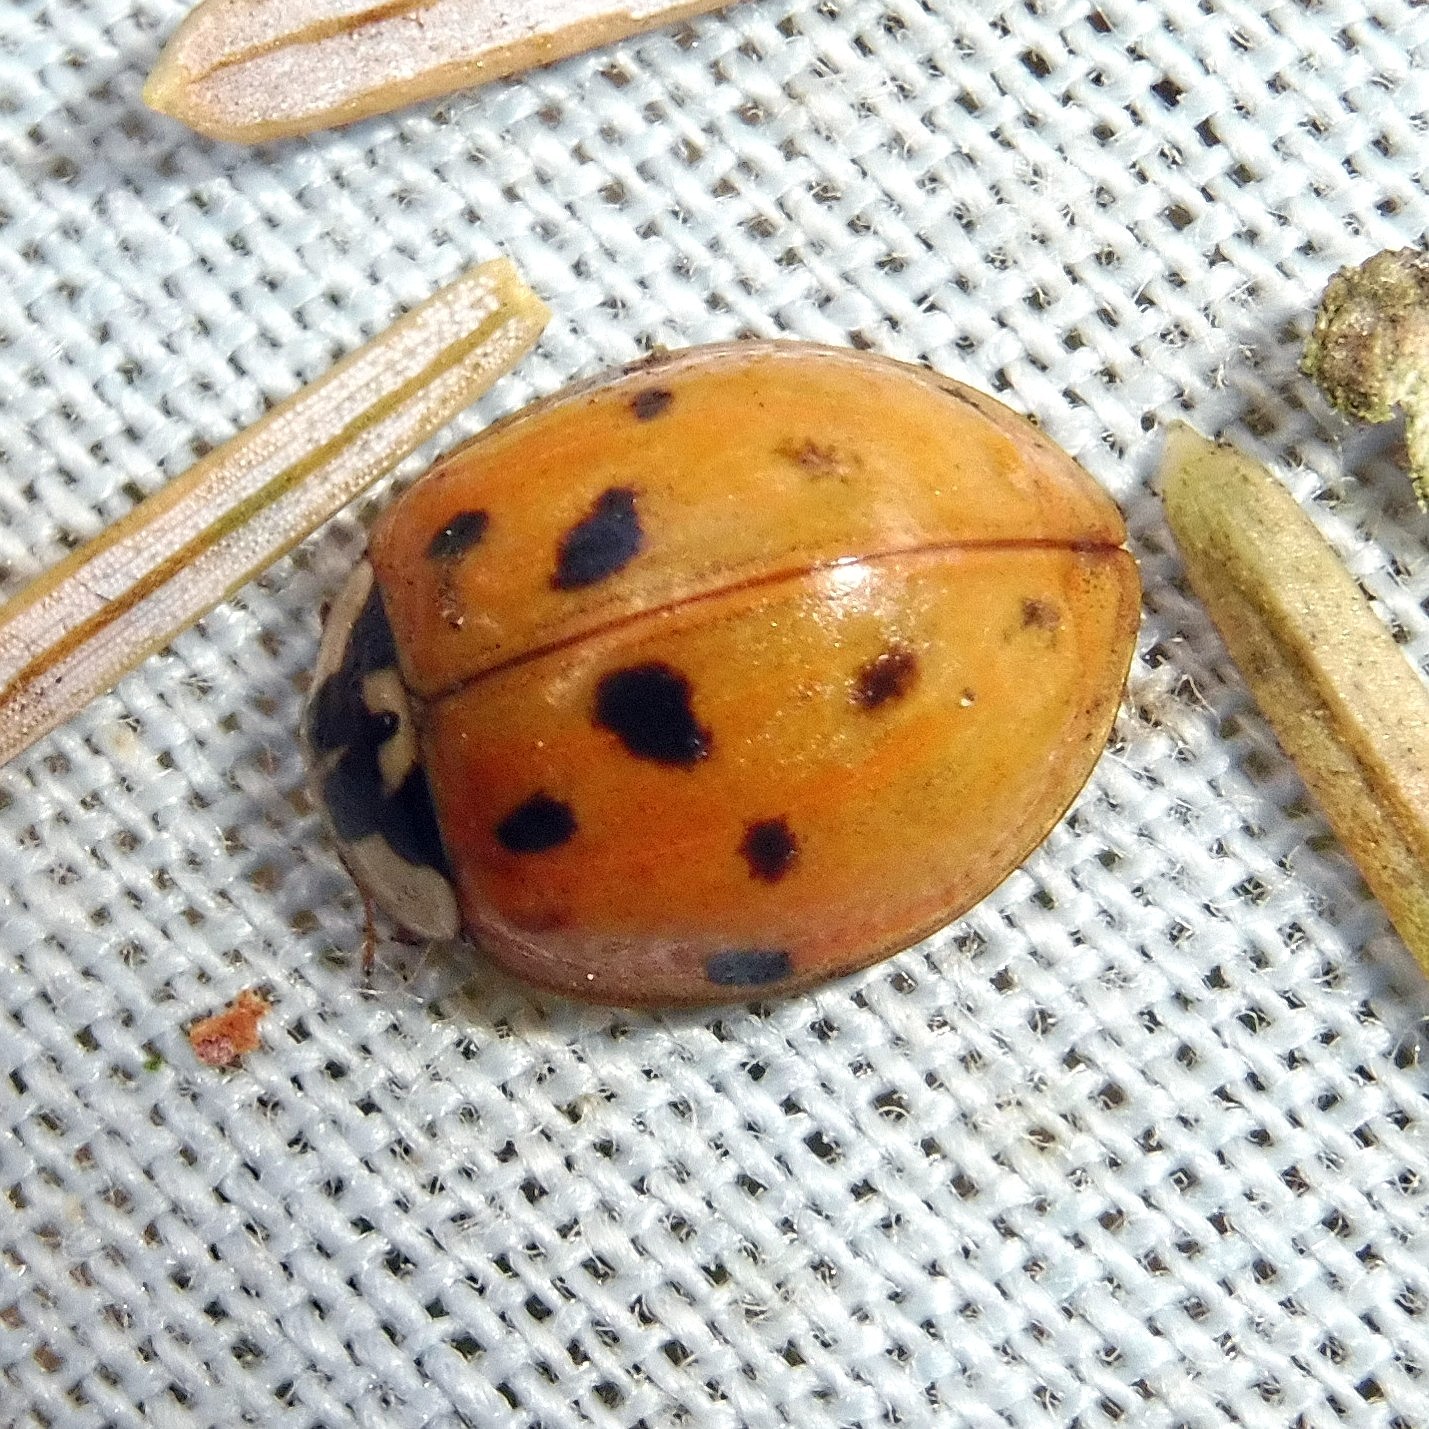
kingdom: Animalia
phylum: Arthropoda
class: Insecta
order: Coleoptera
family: Coccinellidae
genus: Harmonia
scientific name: Harmonia axyridis
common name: Harlequin ladybird
